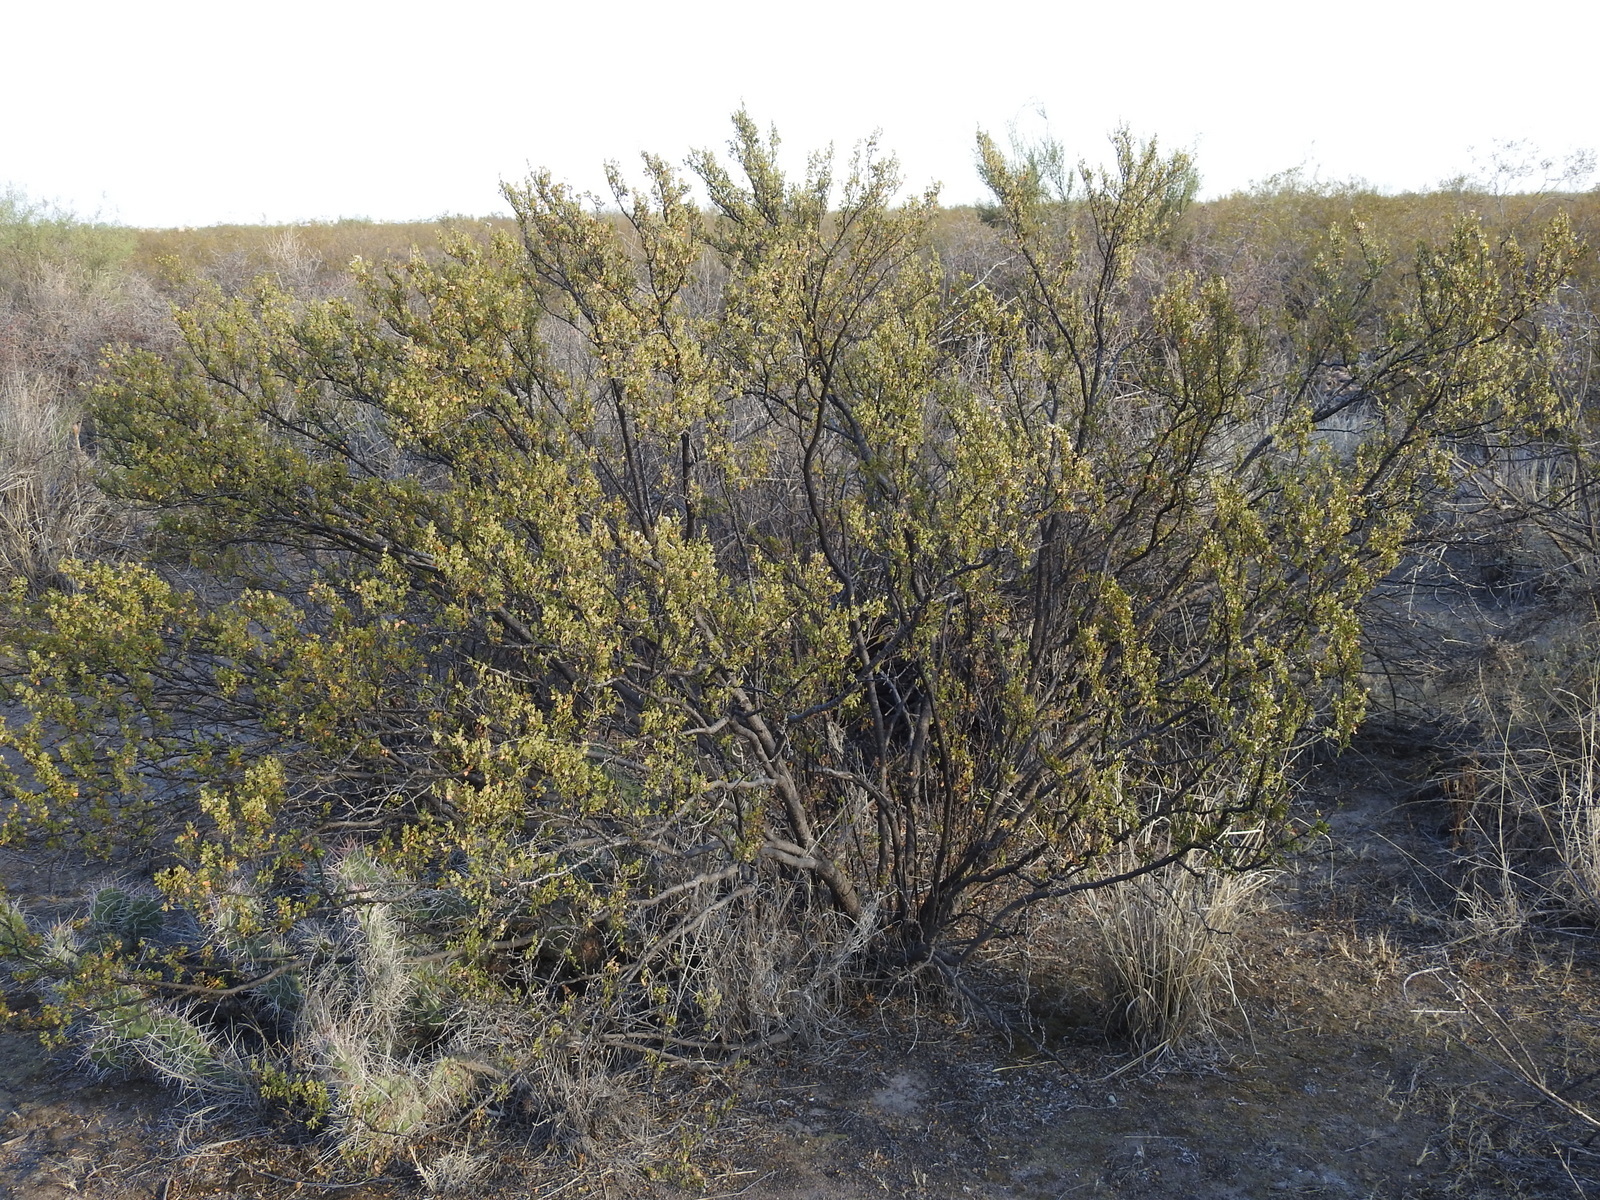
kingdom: Plantae
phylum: Tracheophyta
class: Magnoliopsida
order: Zygophyllales
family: Zygophyllaceae
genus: Larrea
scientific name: Larrea cuneifolia
